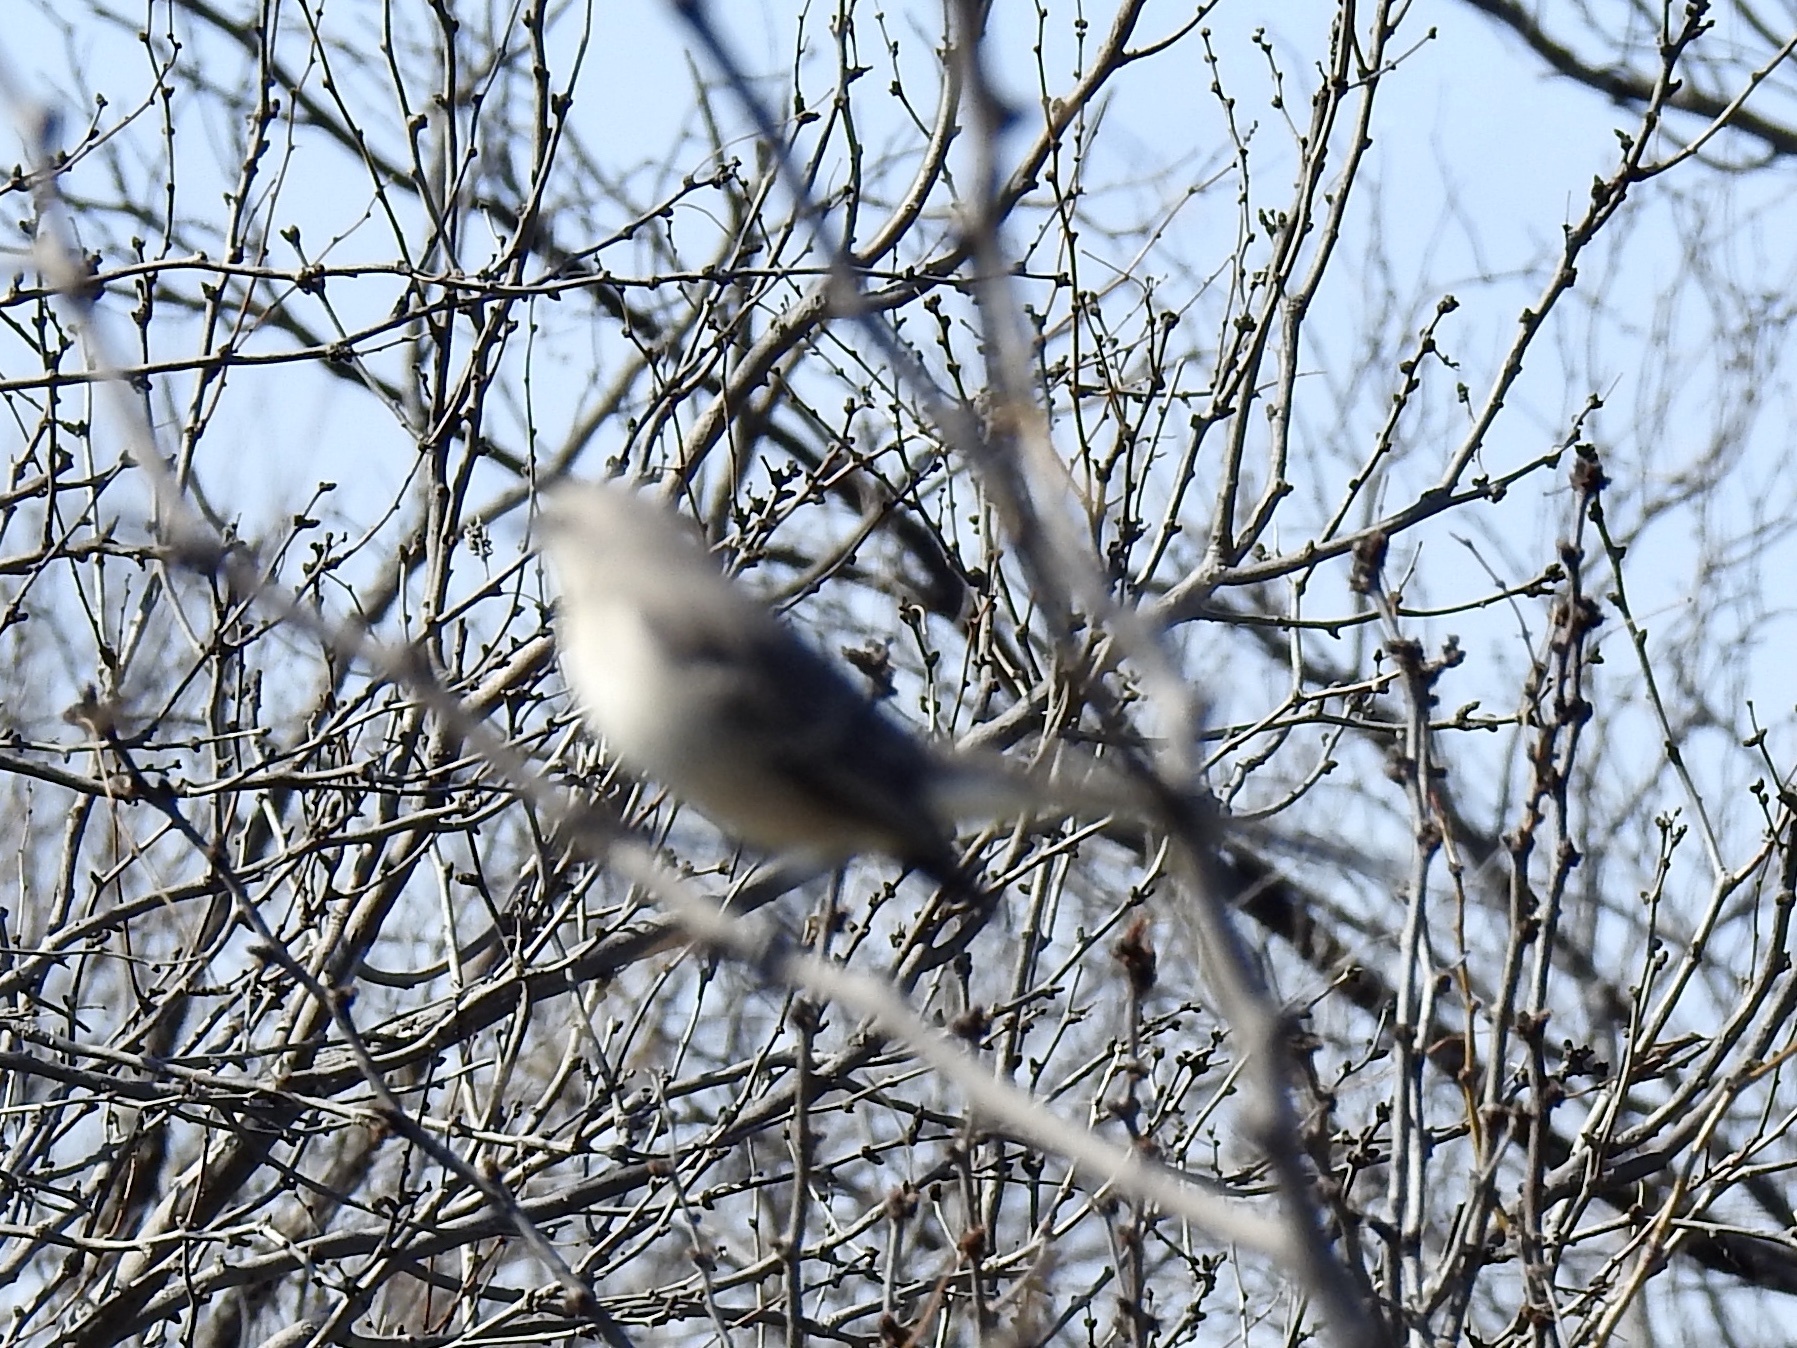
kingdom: Animalia
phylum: Chordata
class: Aves
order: Passeriformes
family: Mimidae
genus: Mimus
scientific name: Mimus polyglottos
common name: Northern mockingbird
